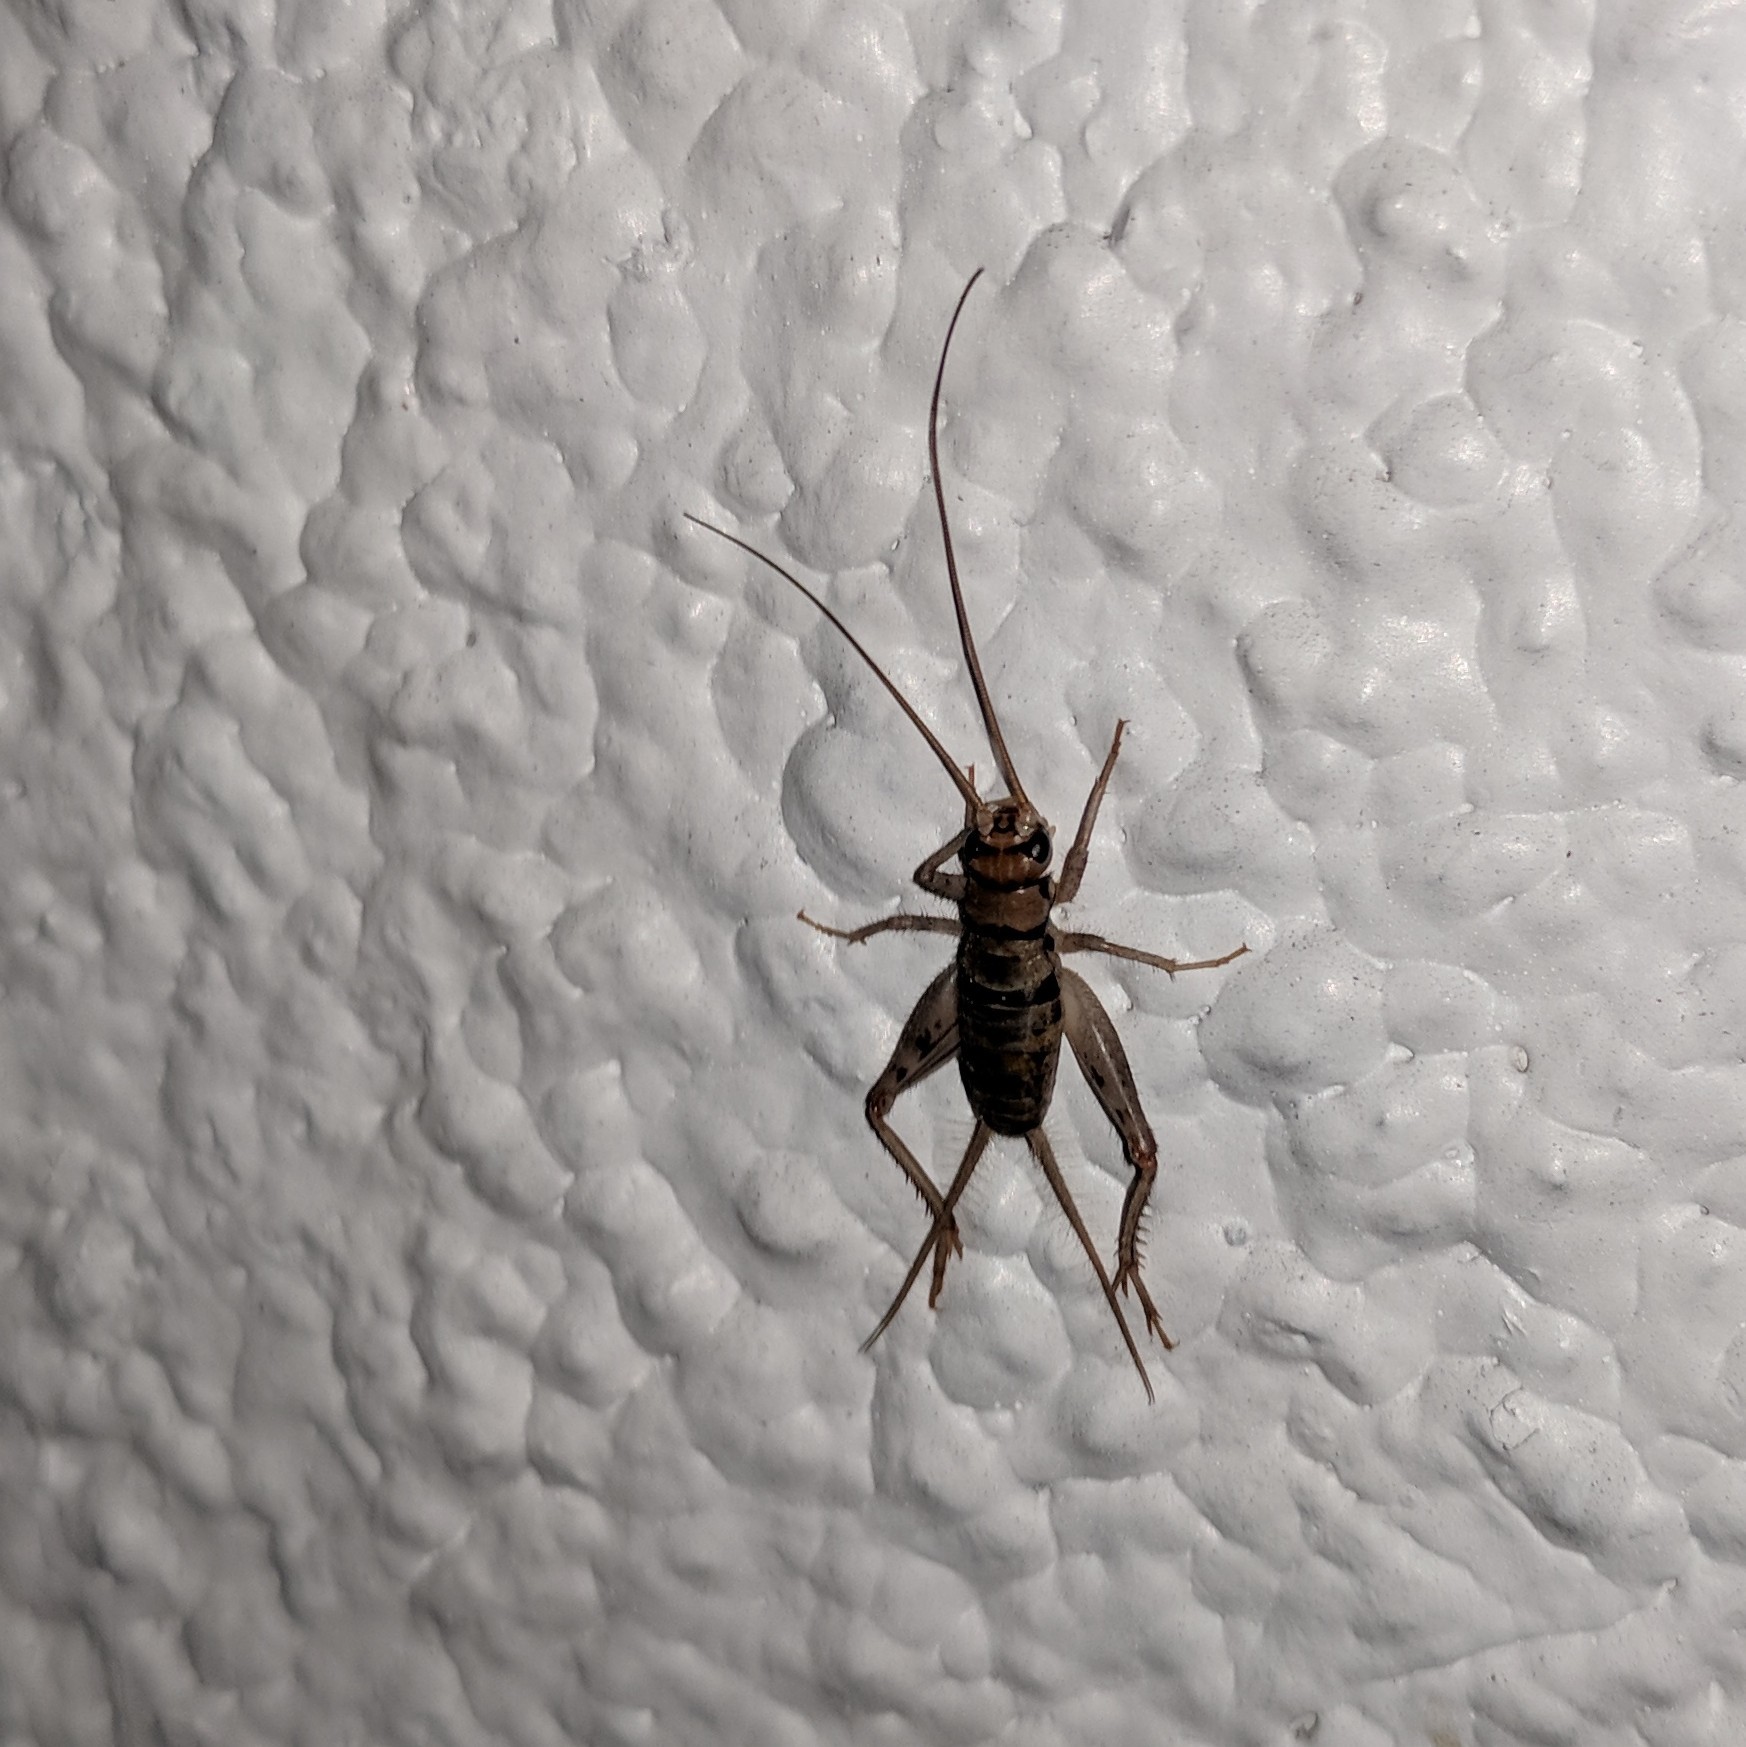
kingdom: Animalia
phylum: Arthropoda
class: Insecta
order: Orthoptera
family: Gryllidae
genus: Gryllodes
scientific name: Gryllodes sigillatus
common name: Tropical house cricket
